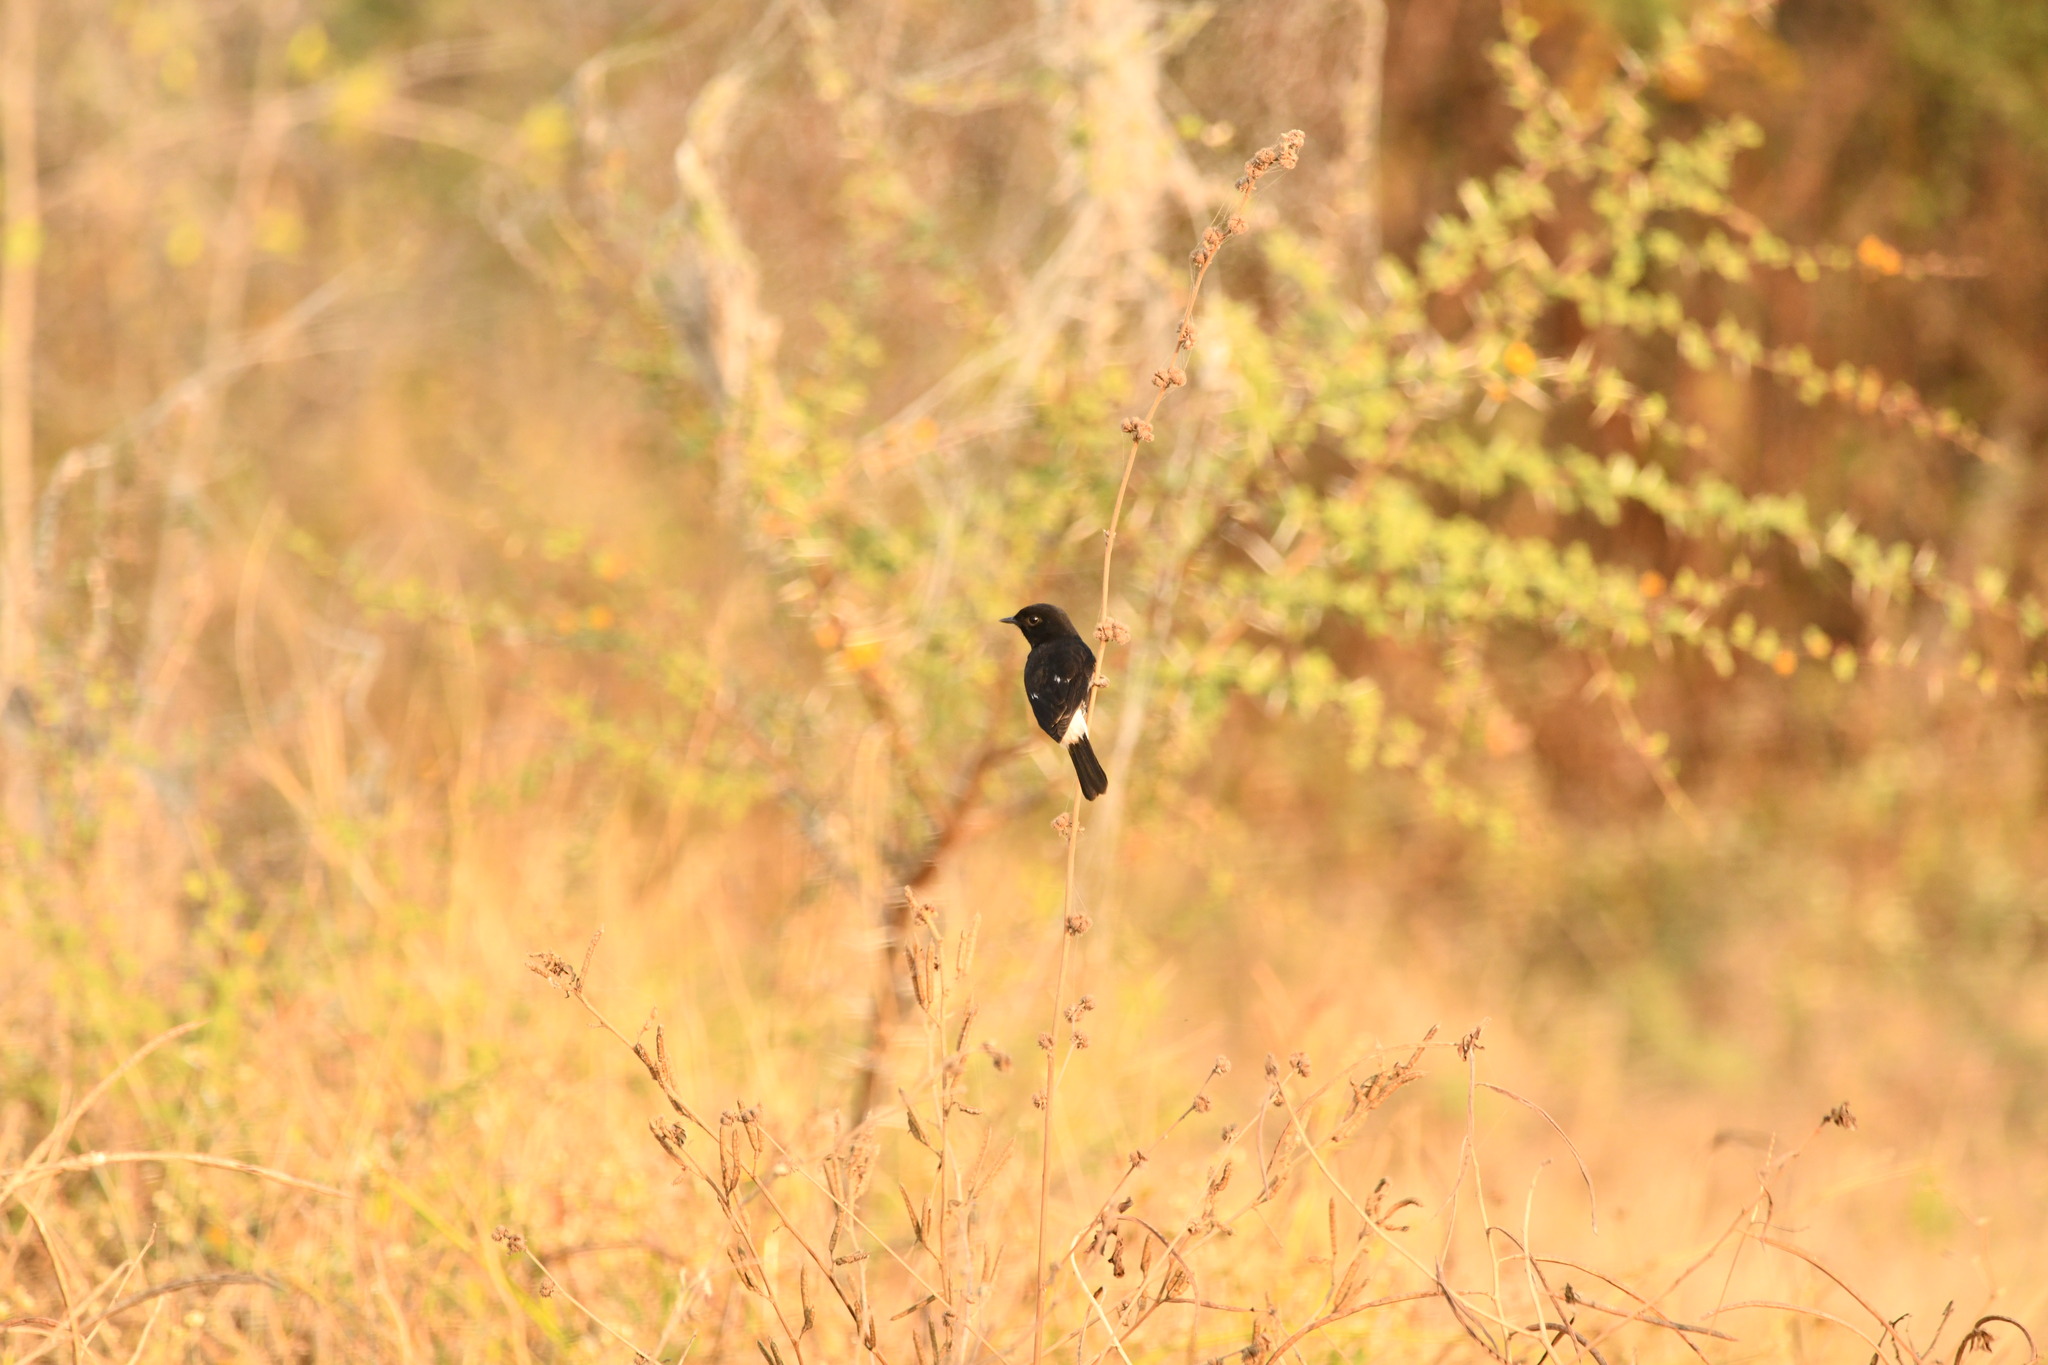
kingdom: Animalia
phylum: Chordata
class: Aves
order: Passeriformes
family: Muscicapidae
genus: Saxicola
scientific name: Saxicola caprata
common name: Pied bush chat
